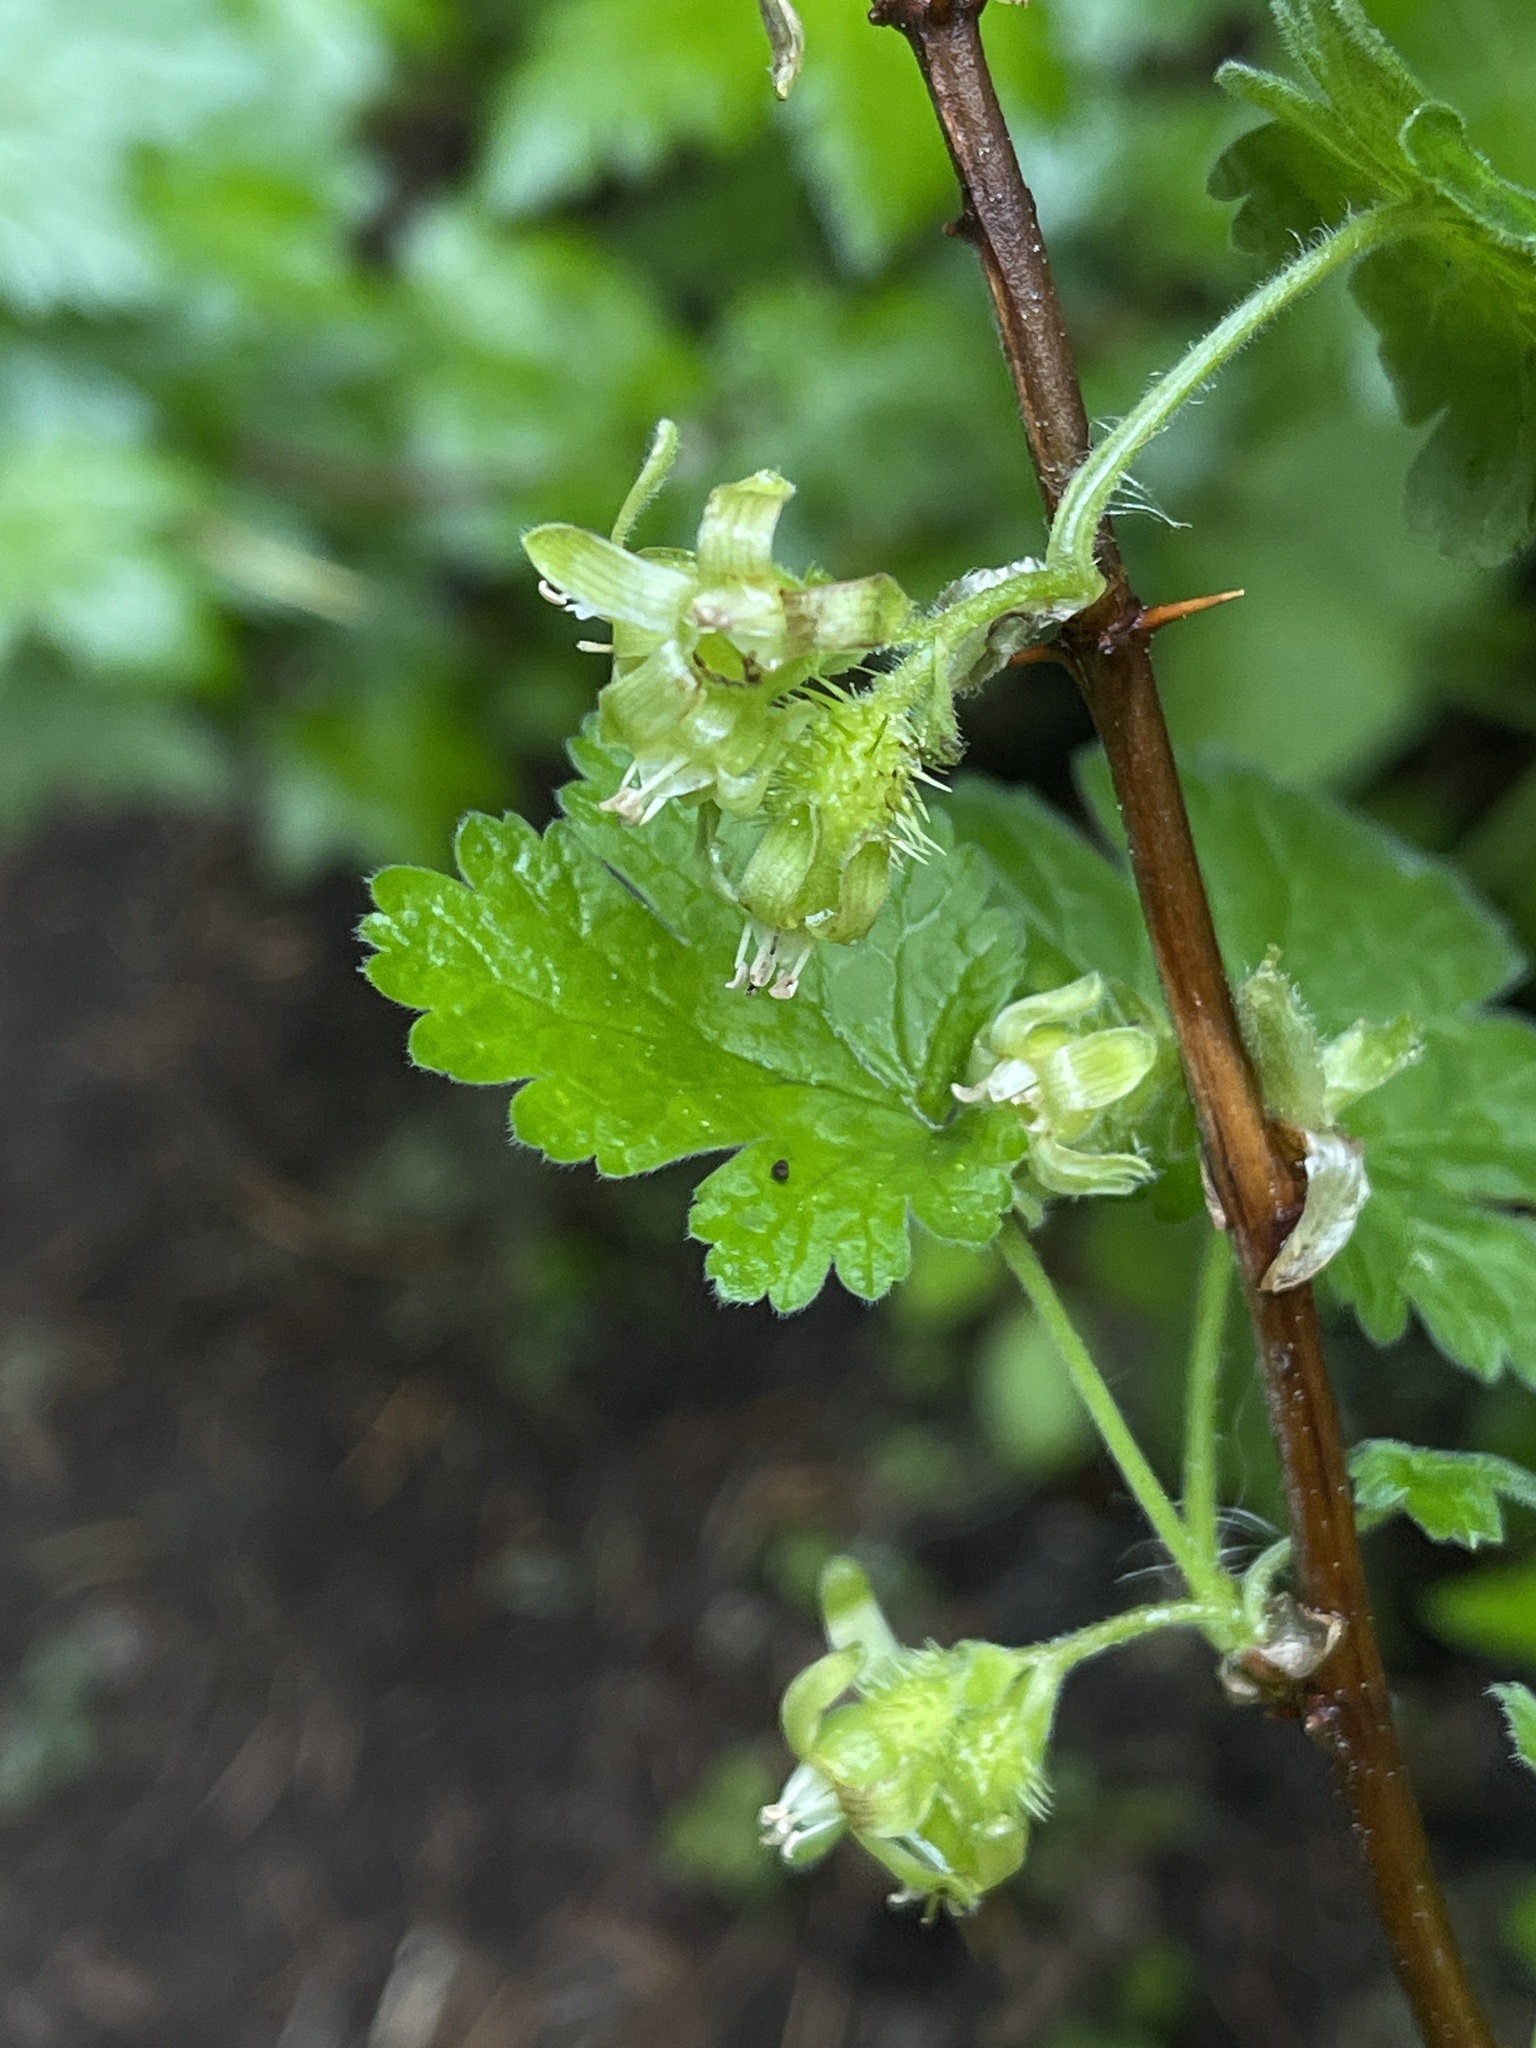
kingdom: Plantae
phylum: Tracheophyta
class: Magnoliopsida
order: Saxifragales
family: Grossulariaceae
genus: Ribes
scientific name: Ribes binominatum
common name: Trailing gooseberry
